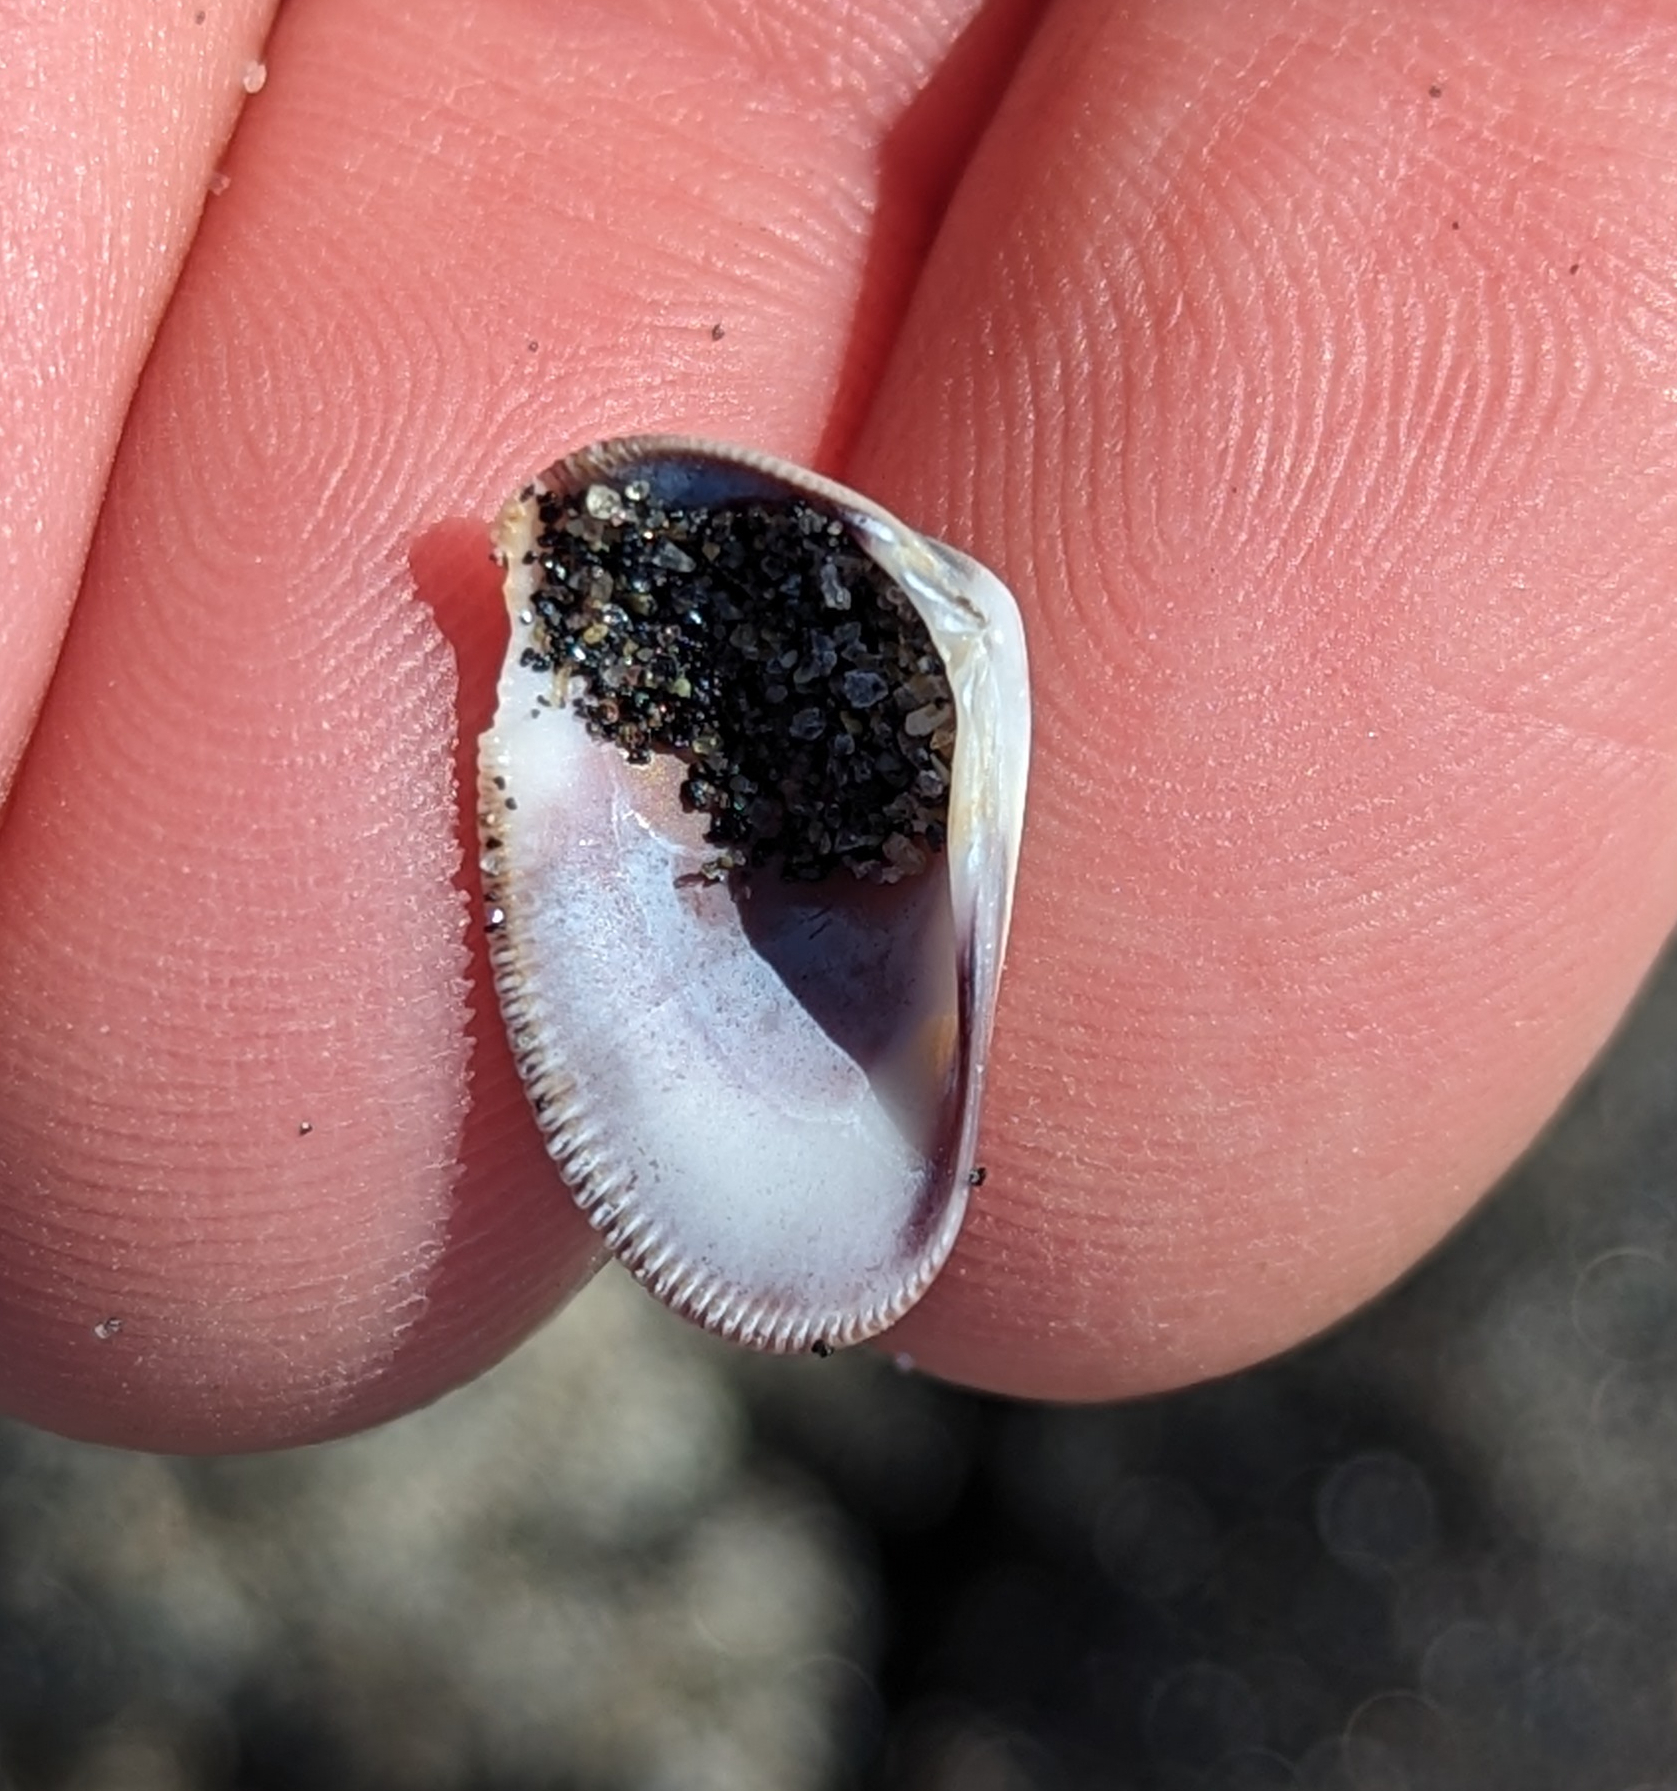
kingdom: Animalia
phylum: Mollusca
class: Bivalvia
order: Cardiida
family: Donacidae
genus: Donax
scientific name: Donax gouldii
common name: Gould beanclam
